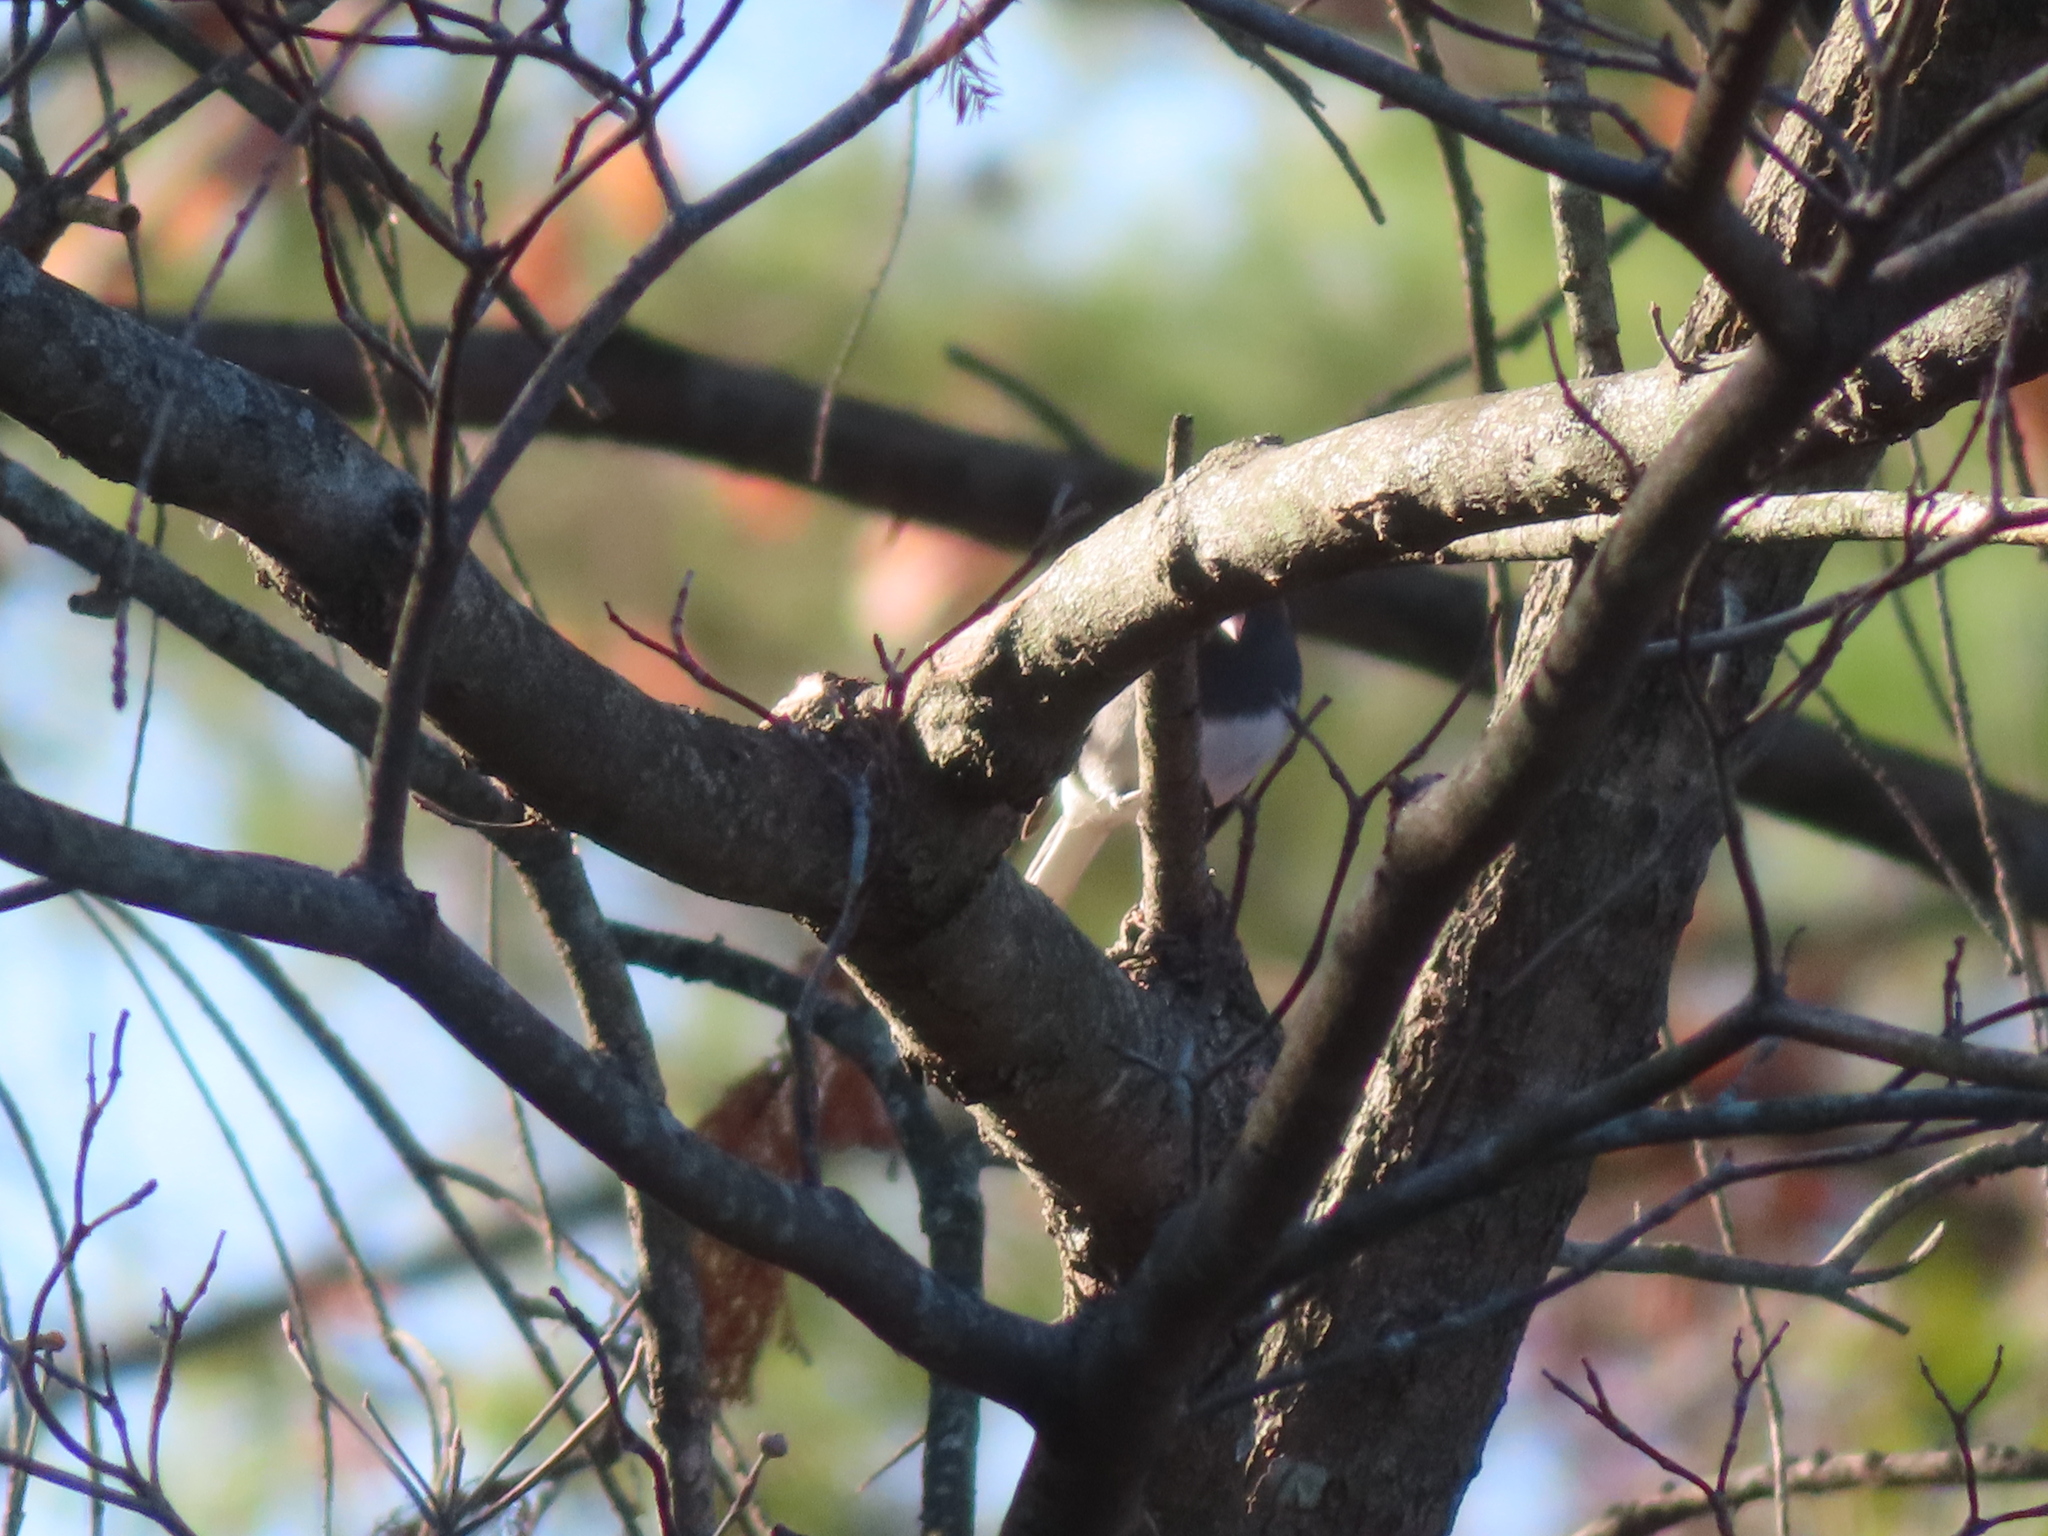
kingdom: Animalia
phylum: Chordata
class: Aves
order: Passeriformes
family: Passerellidae
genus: Junco
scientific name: Junco hyemalis
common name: Dark-eyed junco
